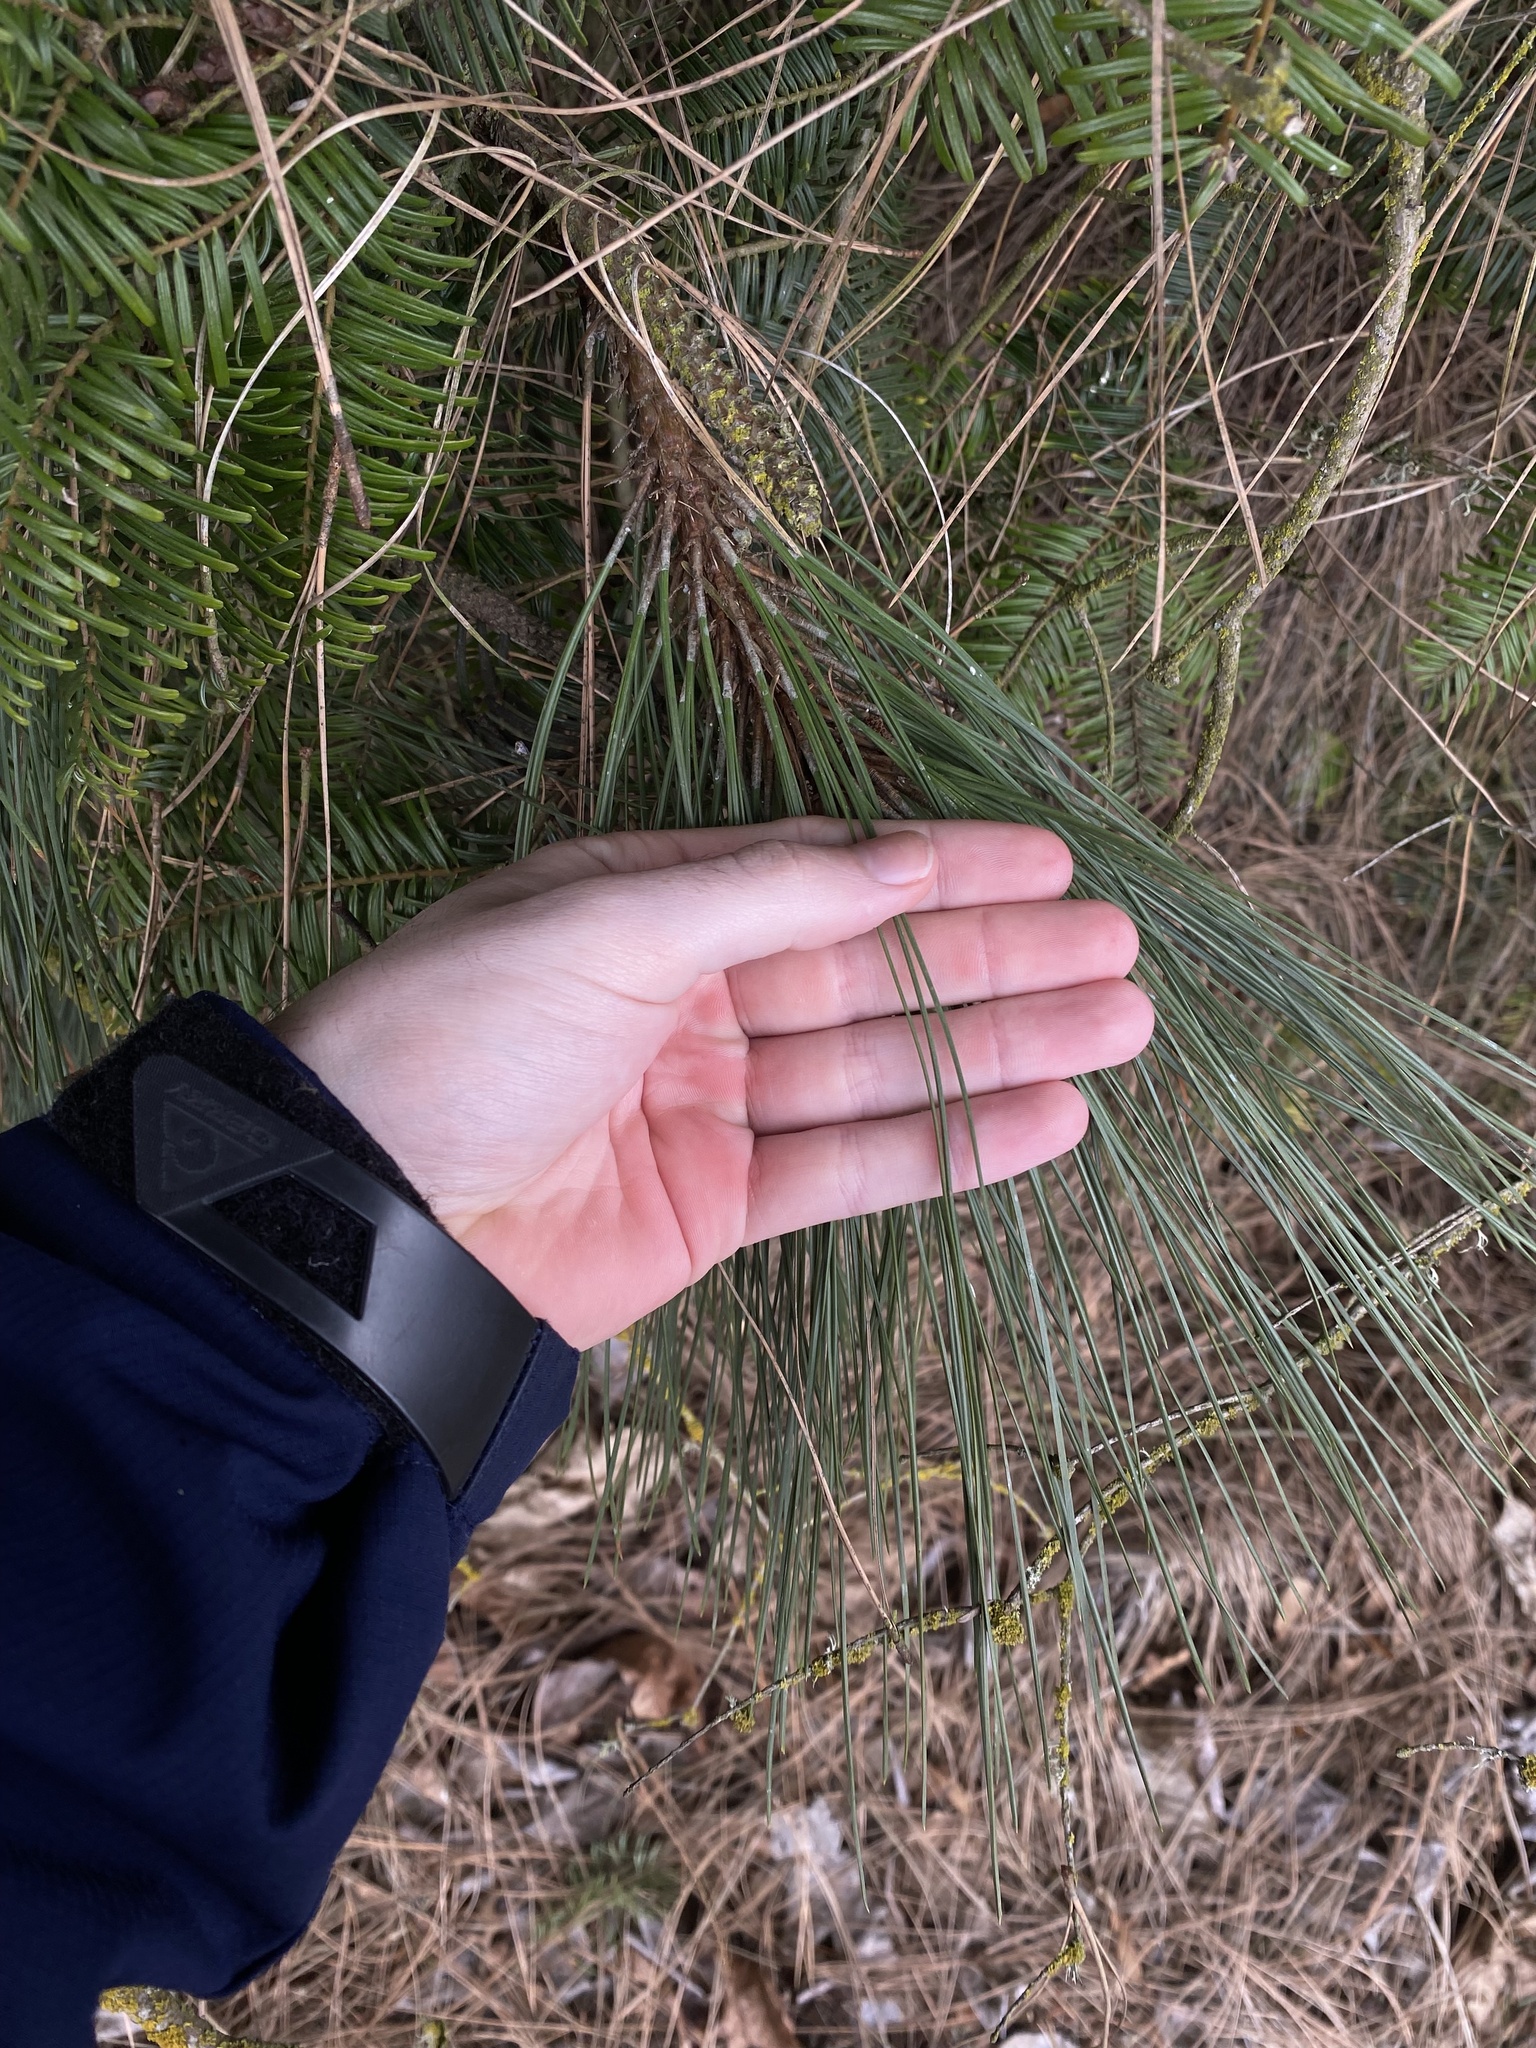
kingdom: Plantae
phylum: Tracheophyta
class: Pinopsida
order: Pinales
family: Pinaceae
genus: Pinus
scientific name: Pinus ponderosa
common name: Western yellow-pine
